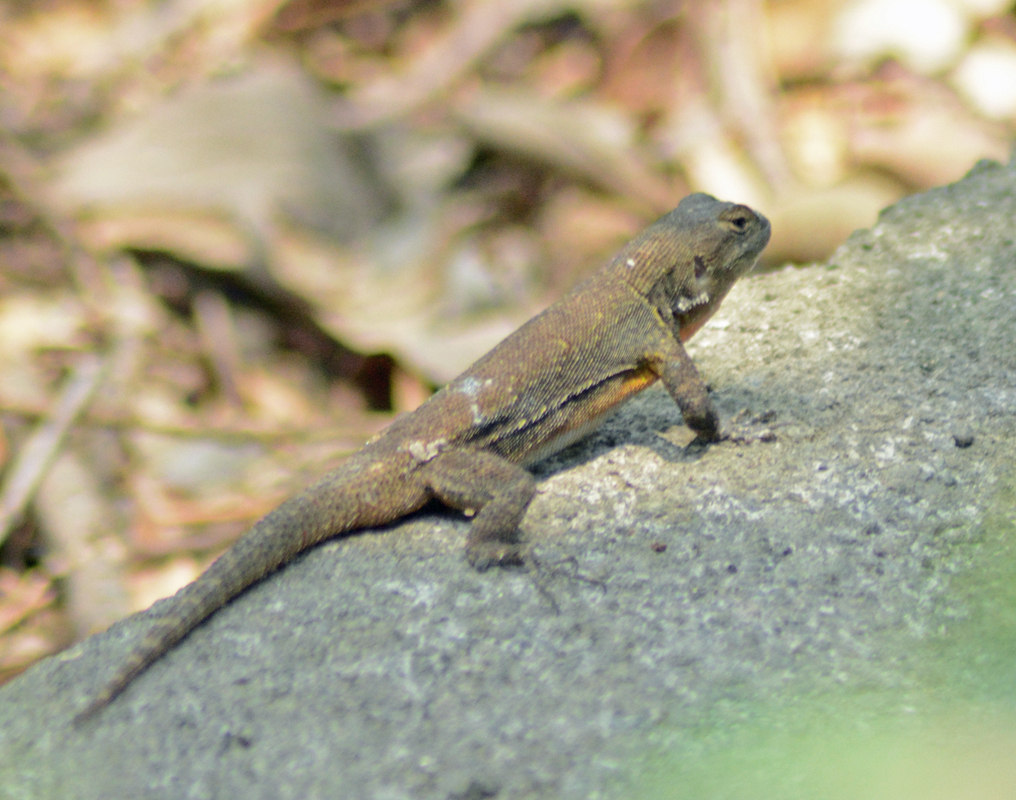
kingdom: Animalia
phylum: Chordata
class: Squamata
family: Phrynosomatidae
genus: Sceloporus
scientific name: Sceloporus grammicus
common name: Mesquite lizard
